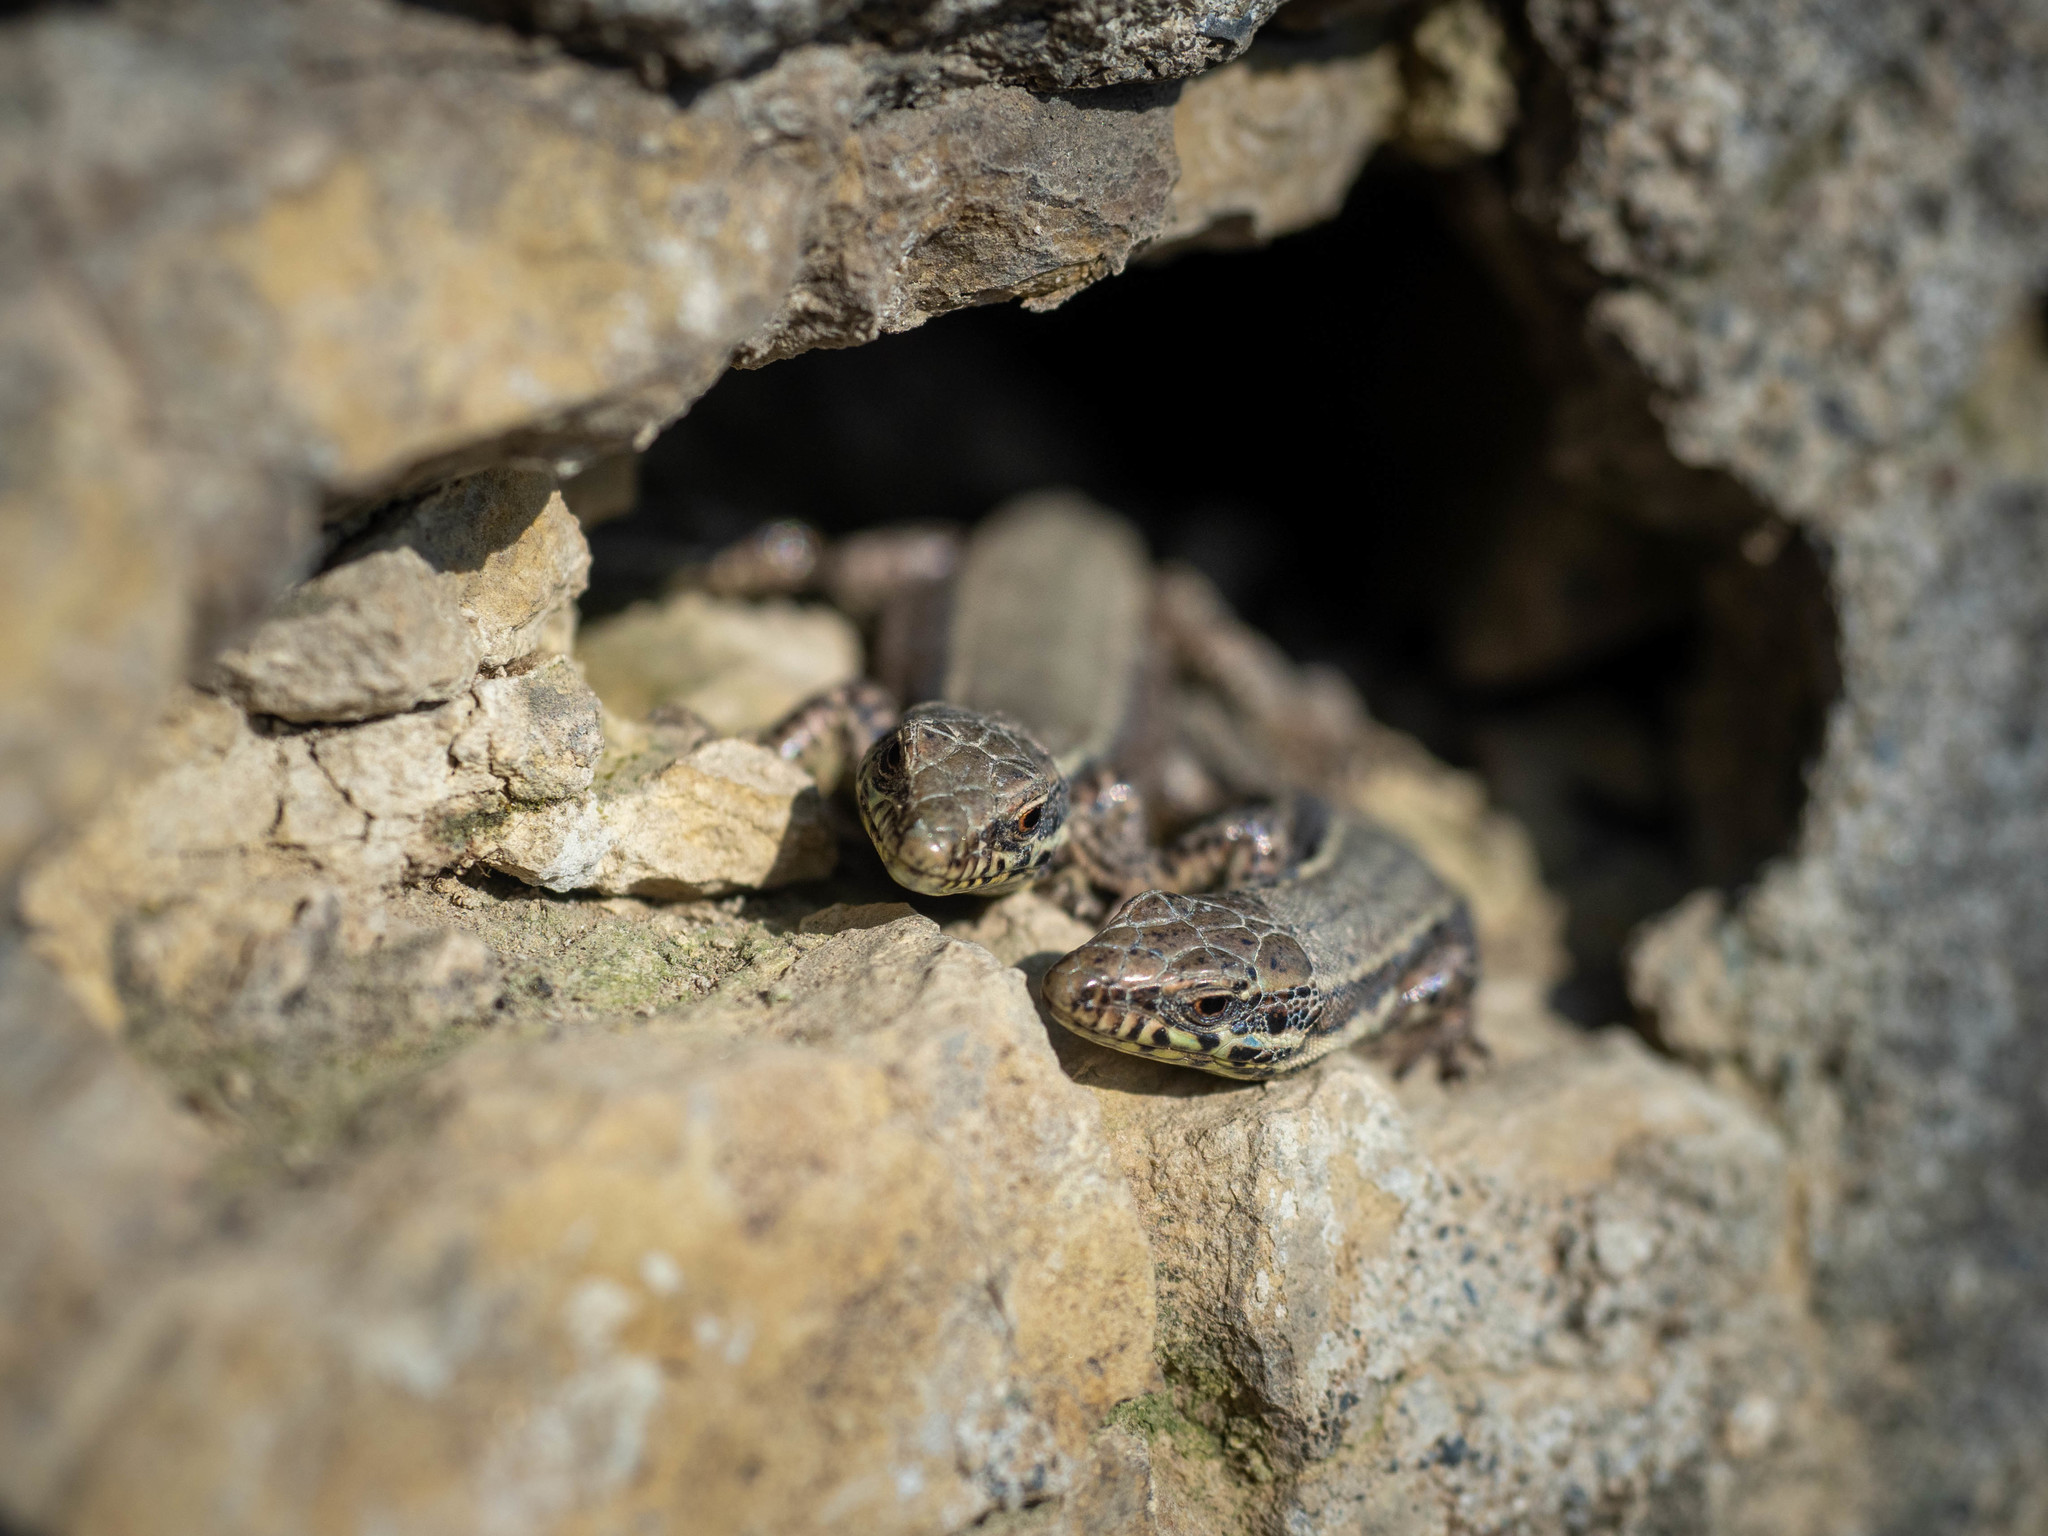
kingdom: Animalia
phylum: Chordata
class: Squamata
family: Lacertidae
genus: Podarcis
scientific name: Podarcis muralis
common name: Common wall lizard
